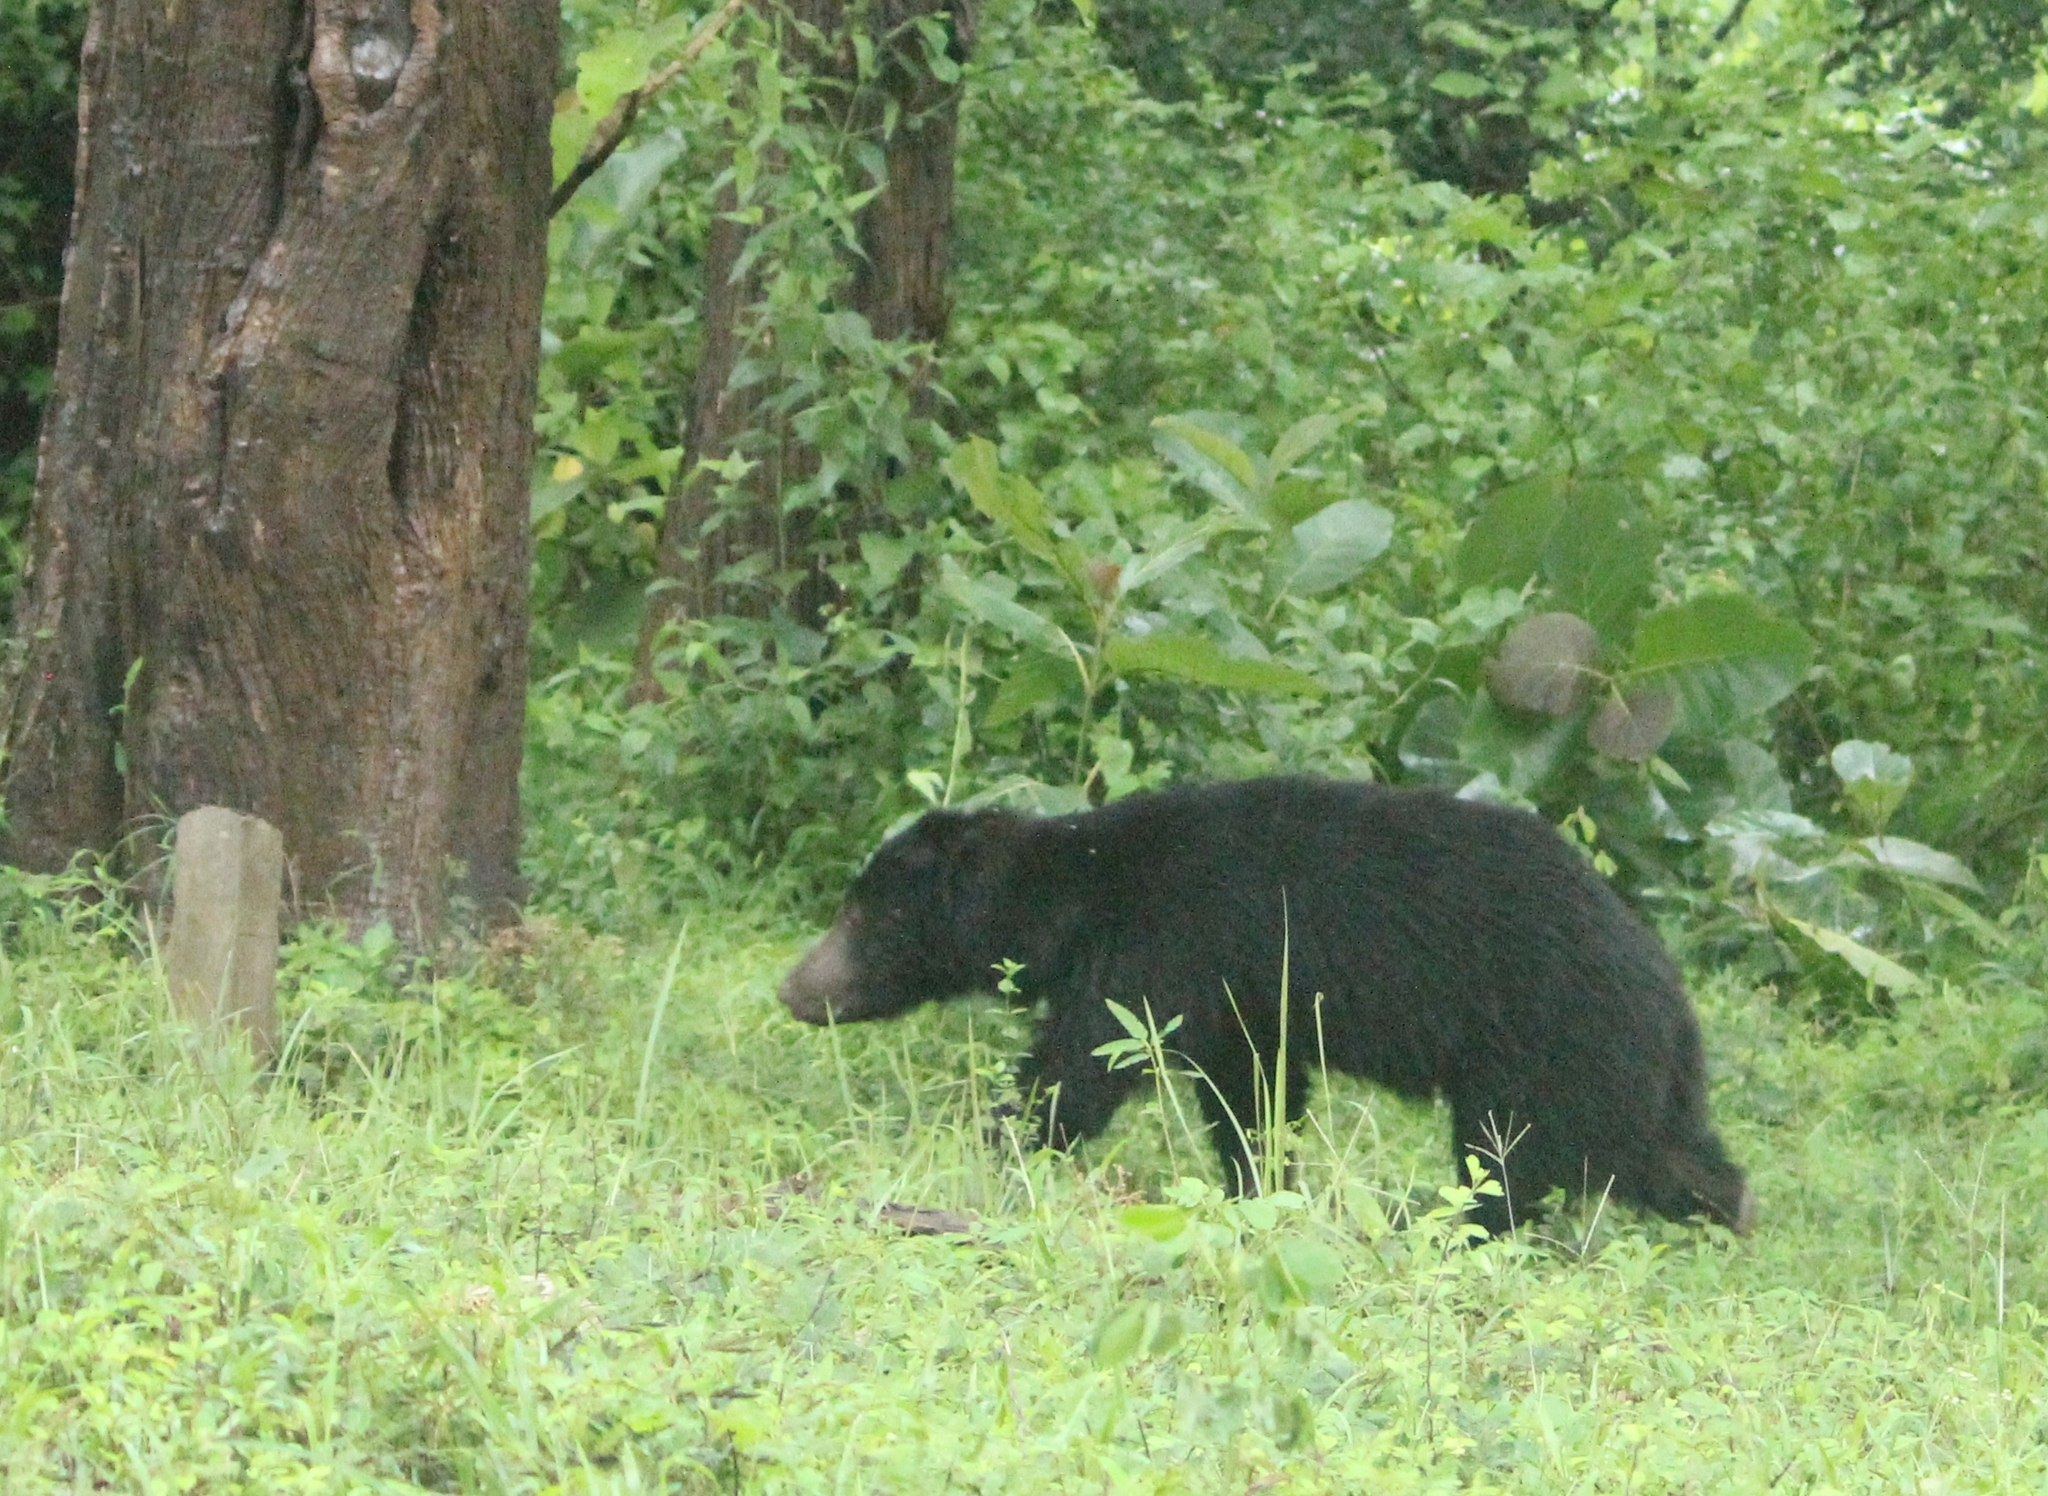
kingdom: Animalia
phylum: Chordata
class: Mammalia
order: Carnivora
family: Ursidae
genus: Melursus
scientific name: Melursus ursinus
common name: Sloth bear
